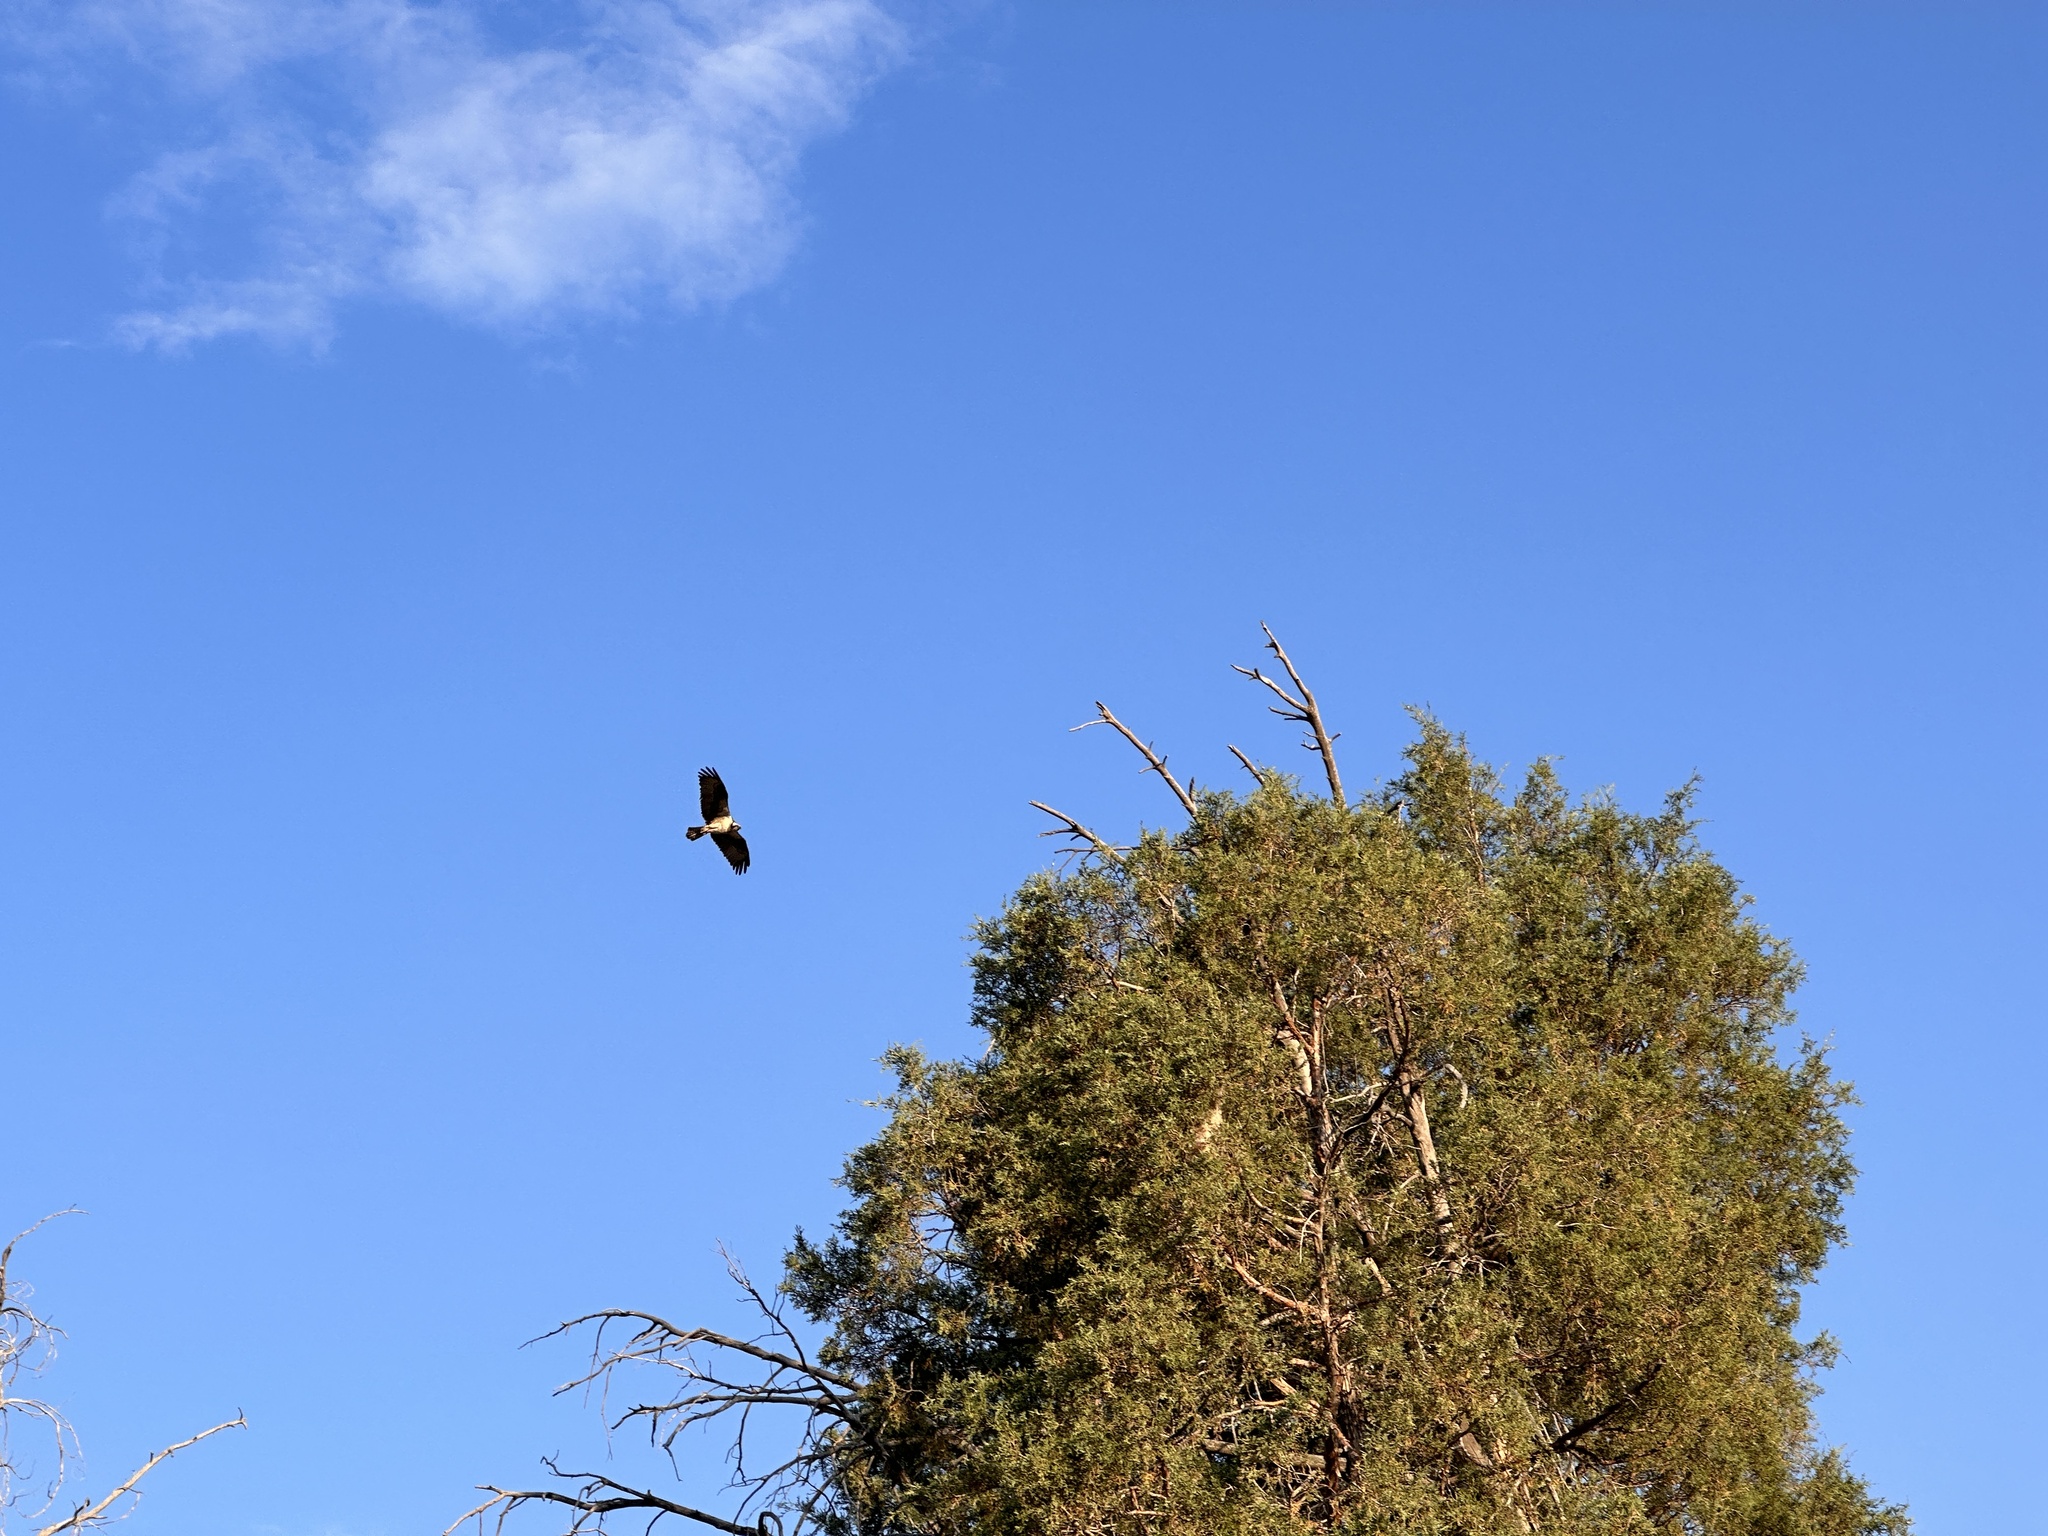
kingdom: Animalia
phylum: Chordata
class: Aves
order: Accipitriformes
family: Pandionidae
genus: Pandion
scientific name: Pandion haliaetus
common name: Osprey
